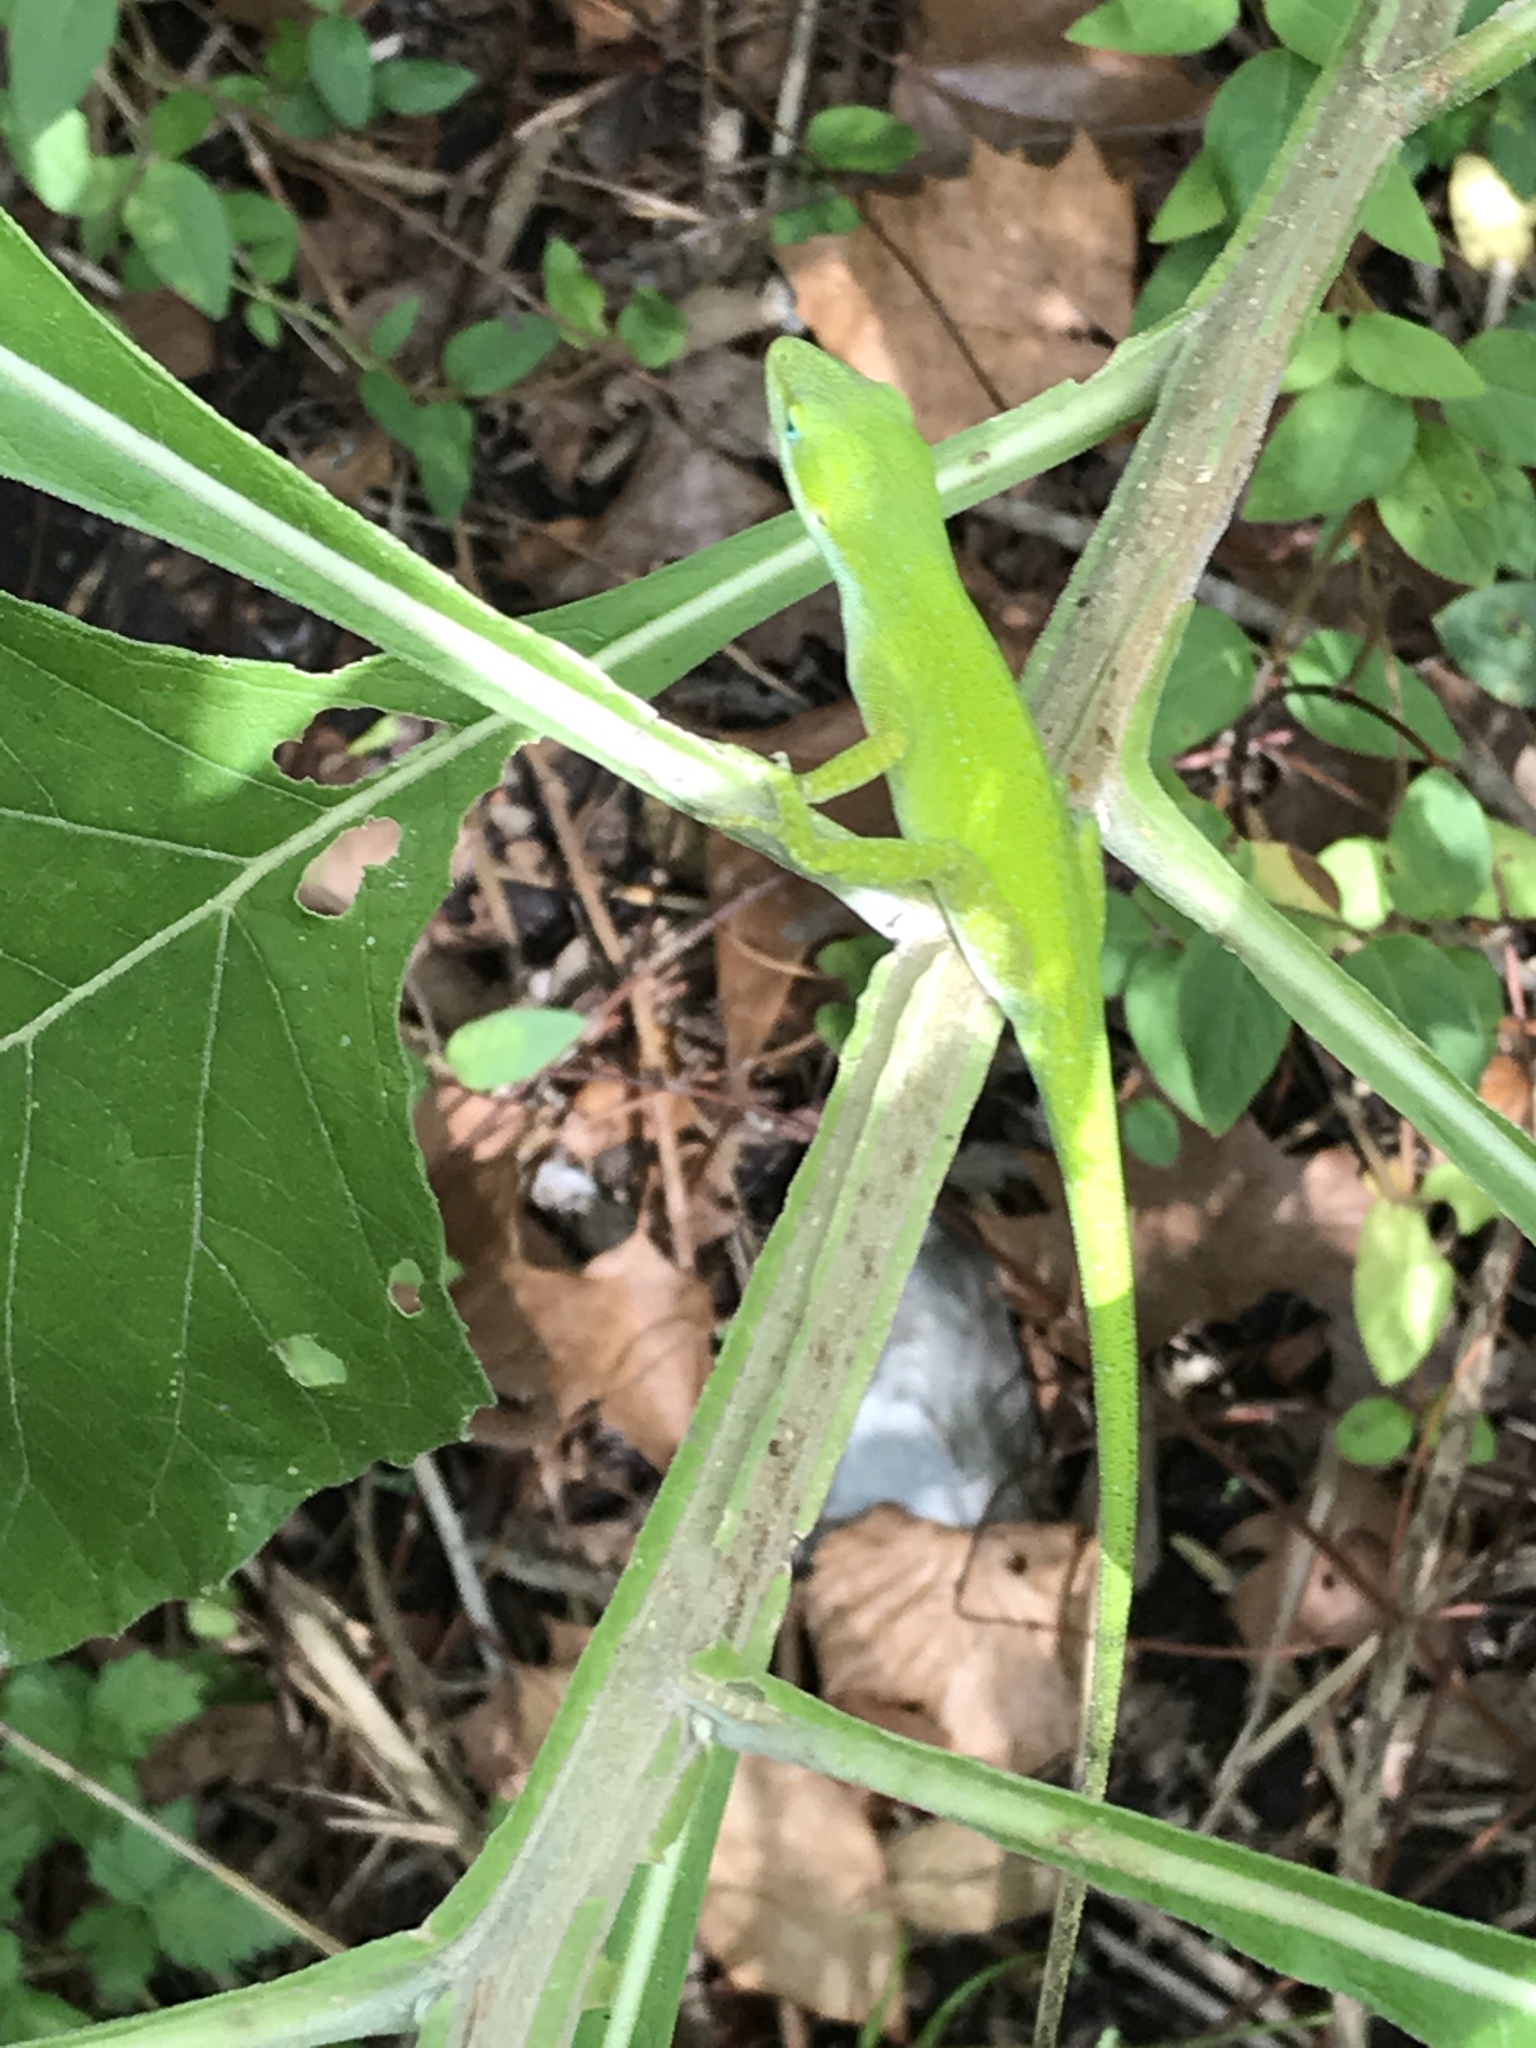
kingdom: Animalia
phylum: Chordata
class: Squamata
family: Dactyloidae
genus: Anolis
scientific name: Anolis carolinensis
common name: Green anole
